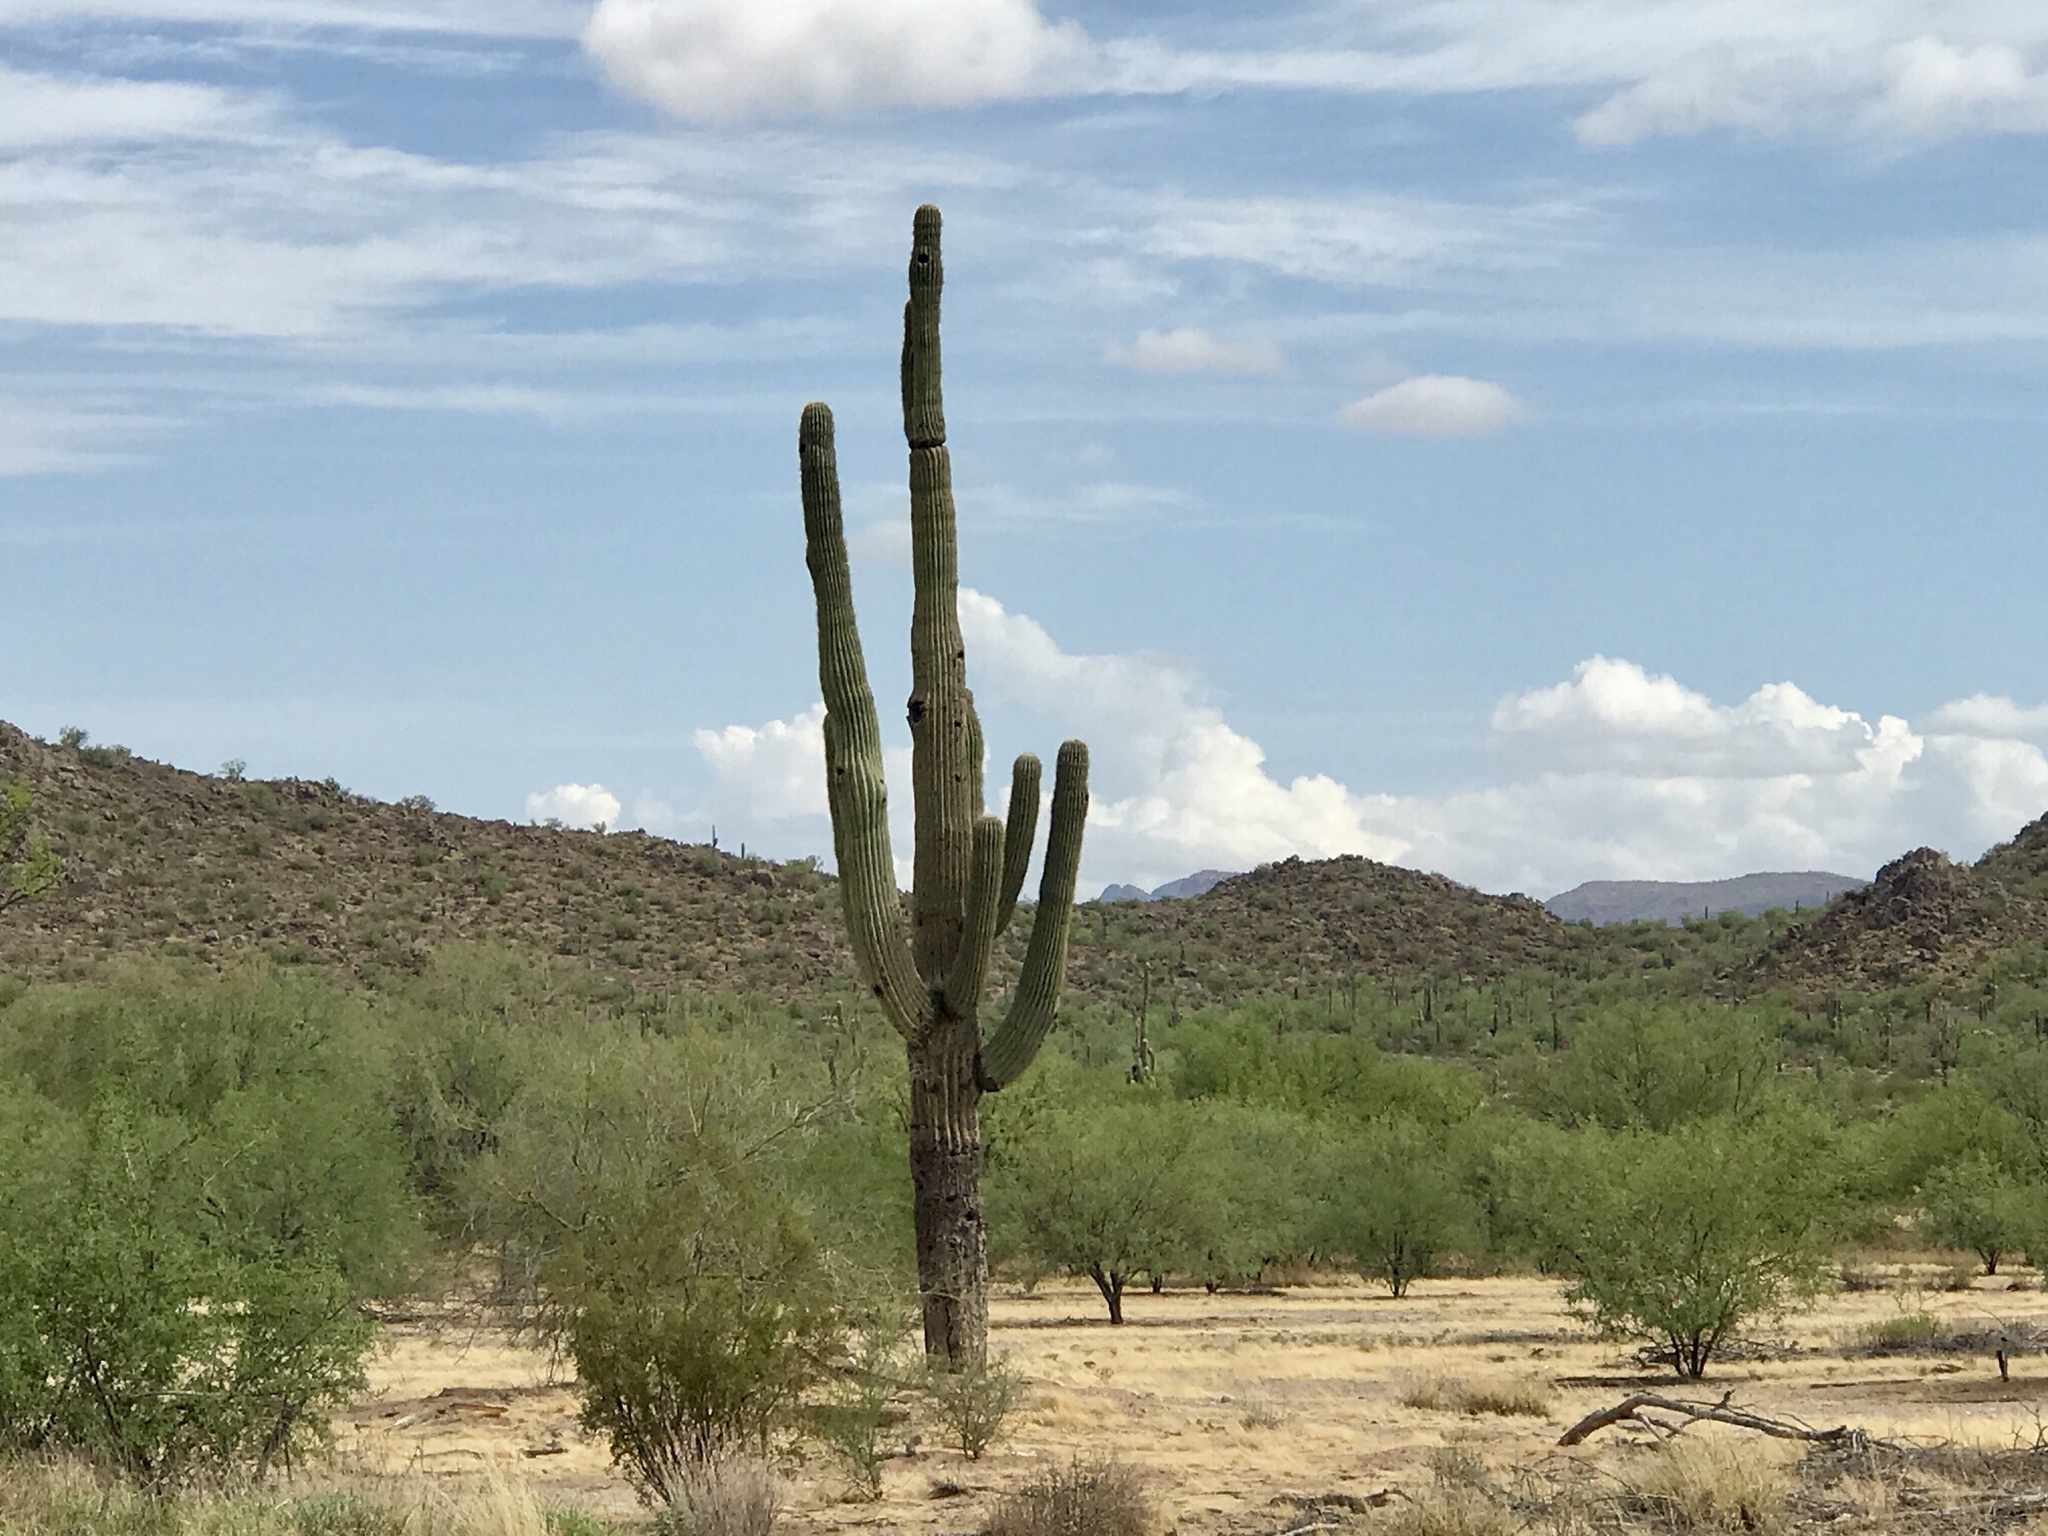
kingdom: Plantae
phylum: Tracheophyta
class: Magnoliopsida
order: Caryophyllales
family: Cactaceae
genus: Carnegiea
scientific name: Carnegiea gigantea
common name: Saguaro
